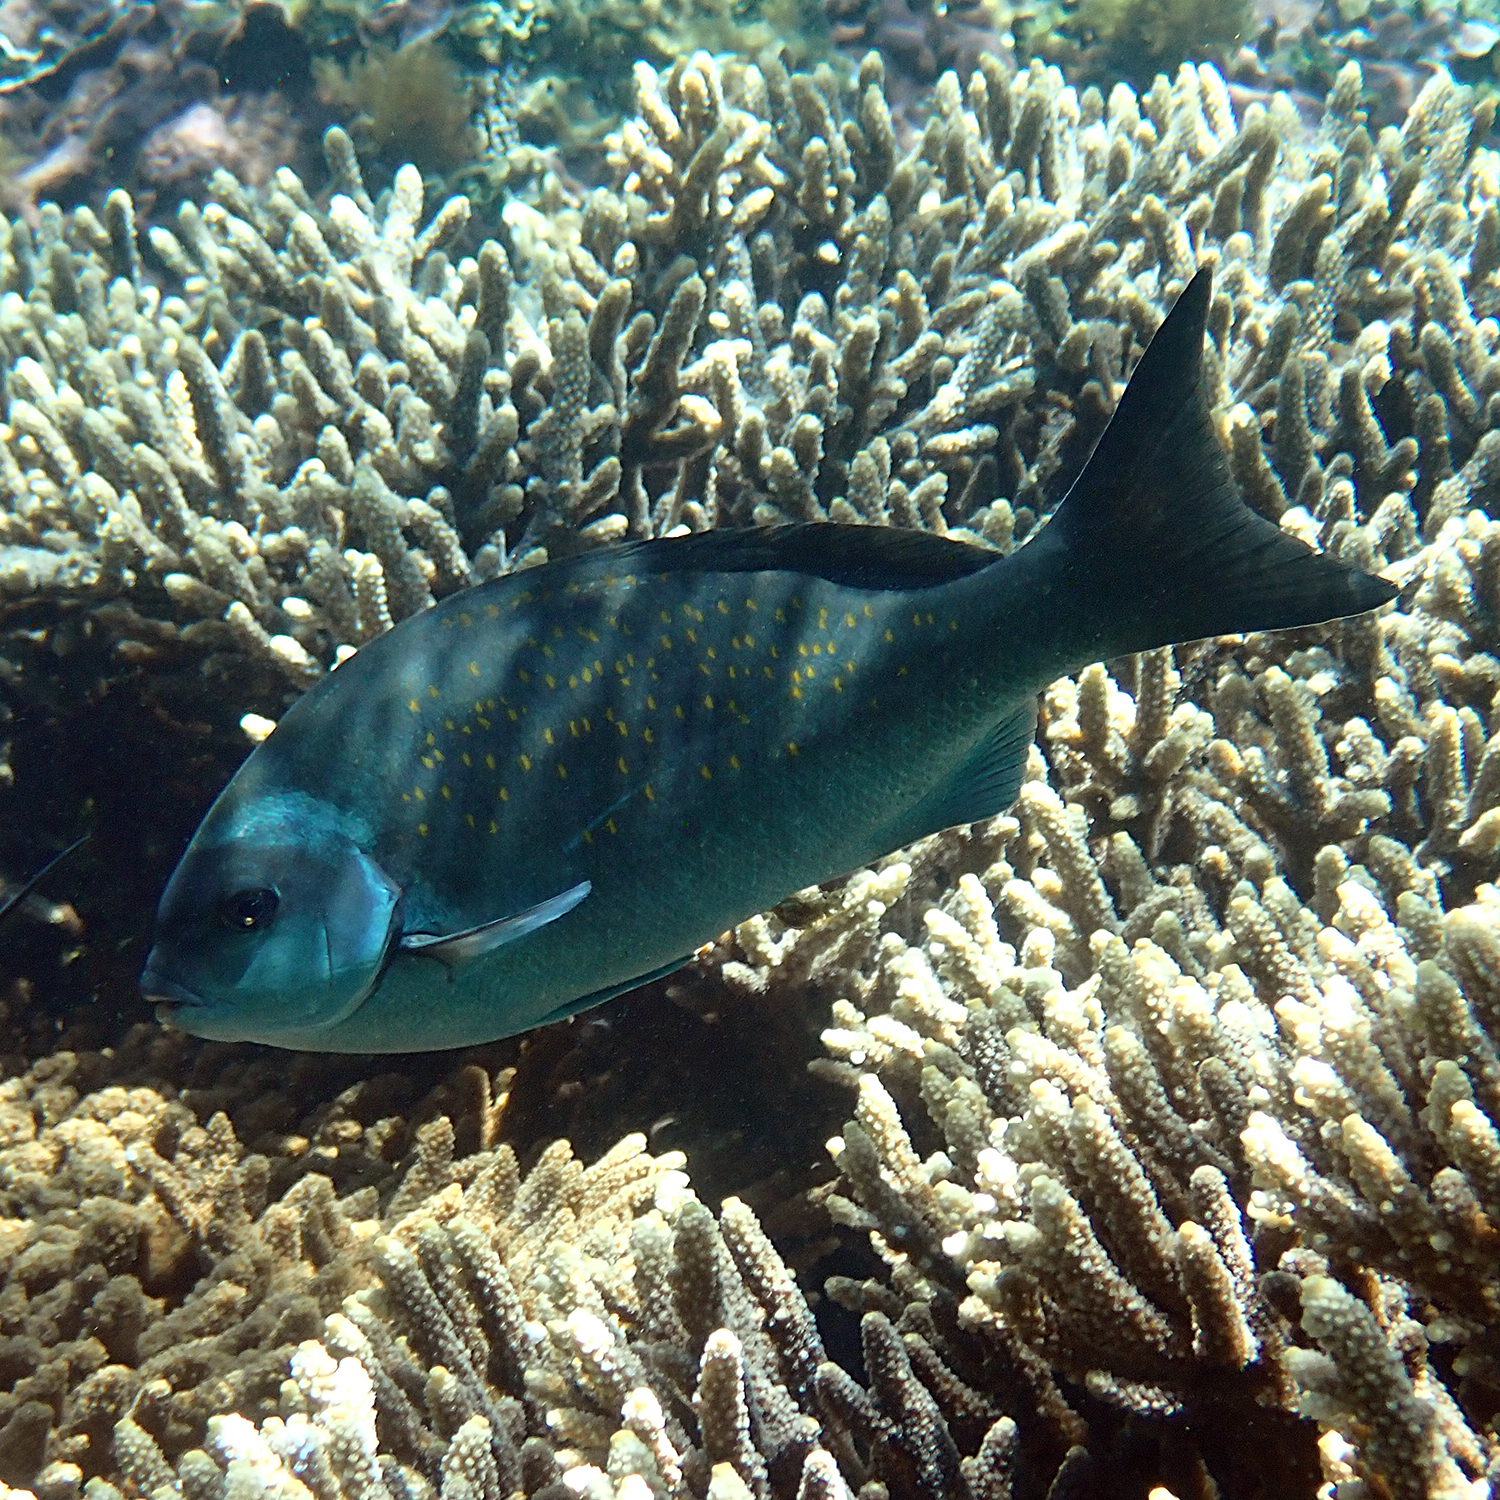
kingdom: Animalia
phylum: Chordata
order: Perciformes
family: Kyphosidae
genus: Girella
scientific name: Girella cyanea
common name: Bluefish
